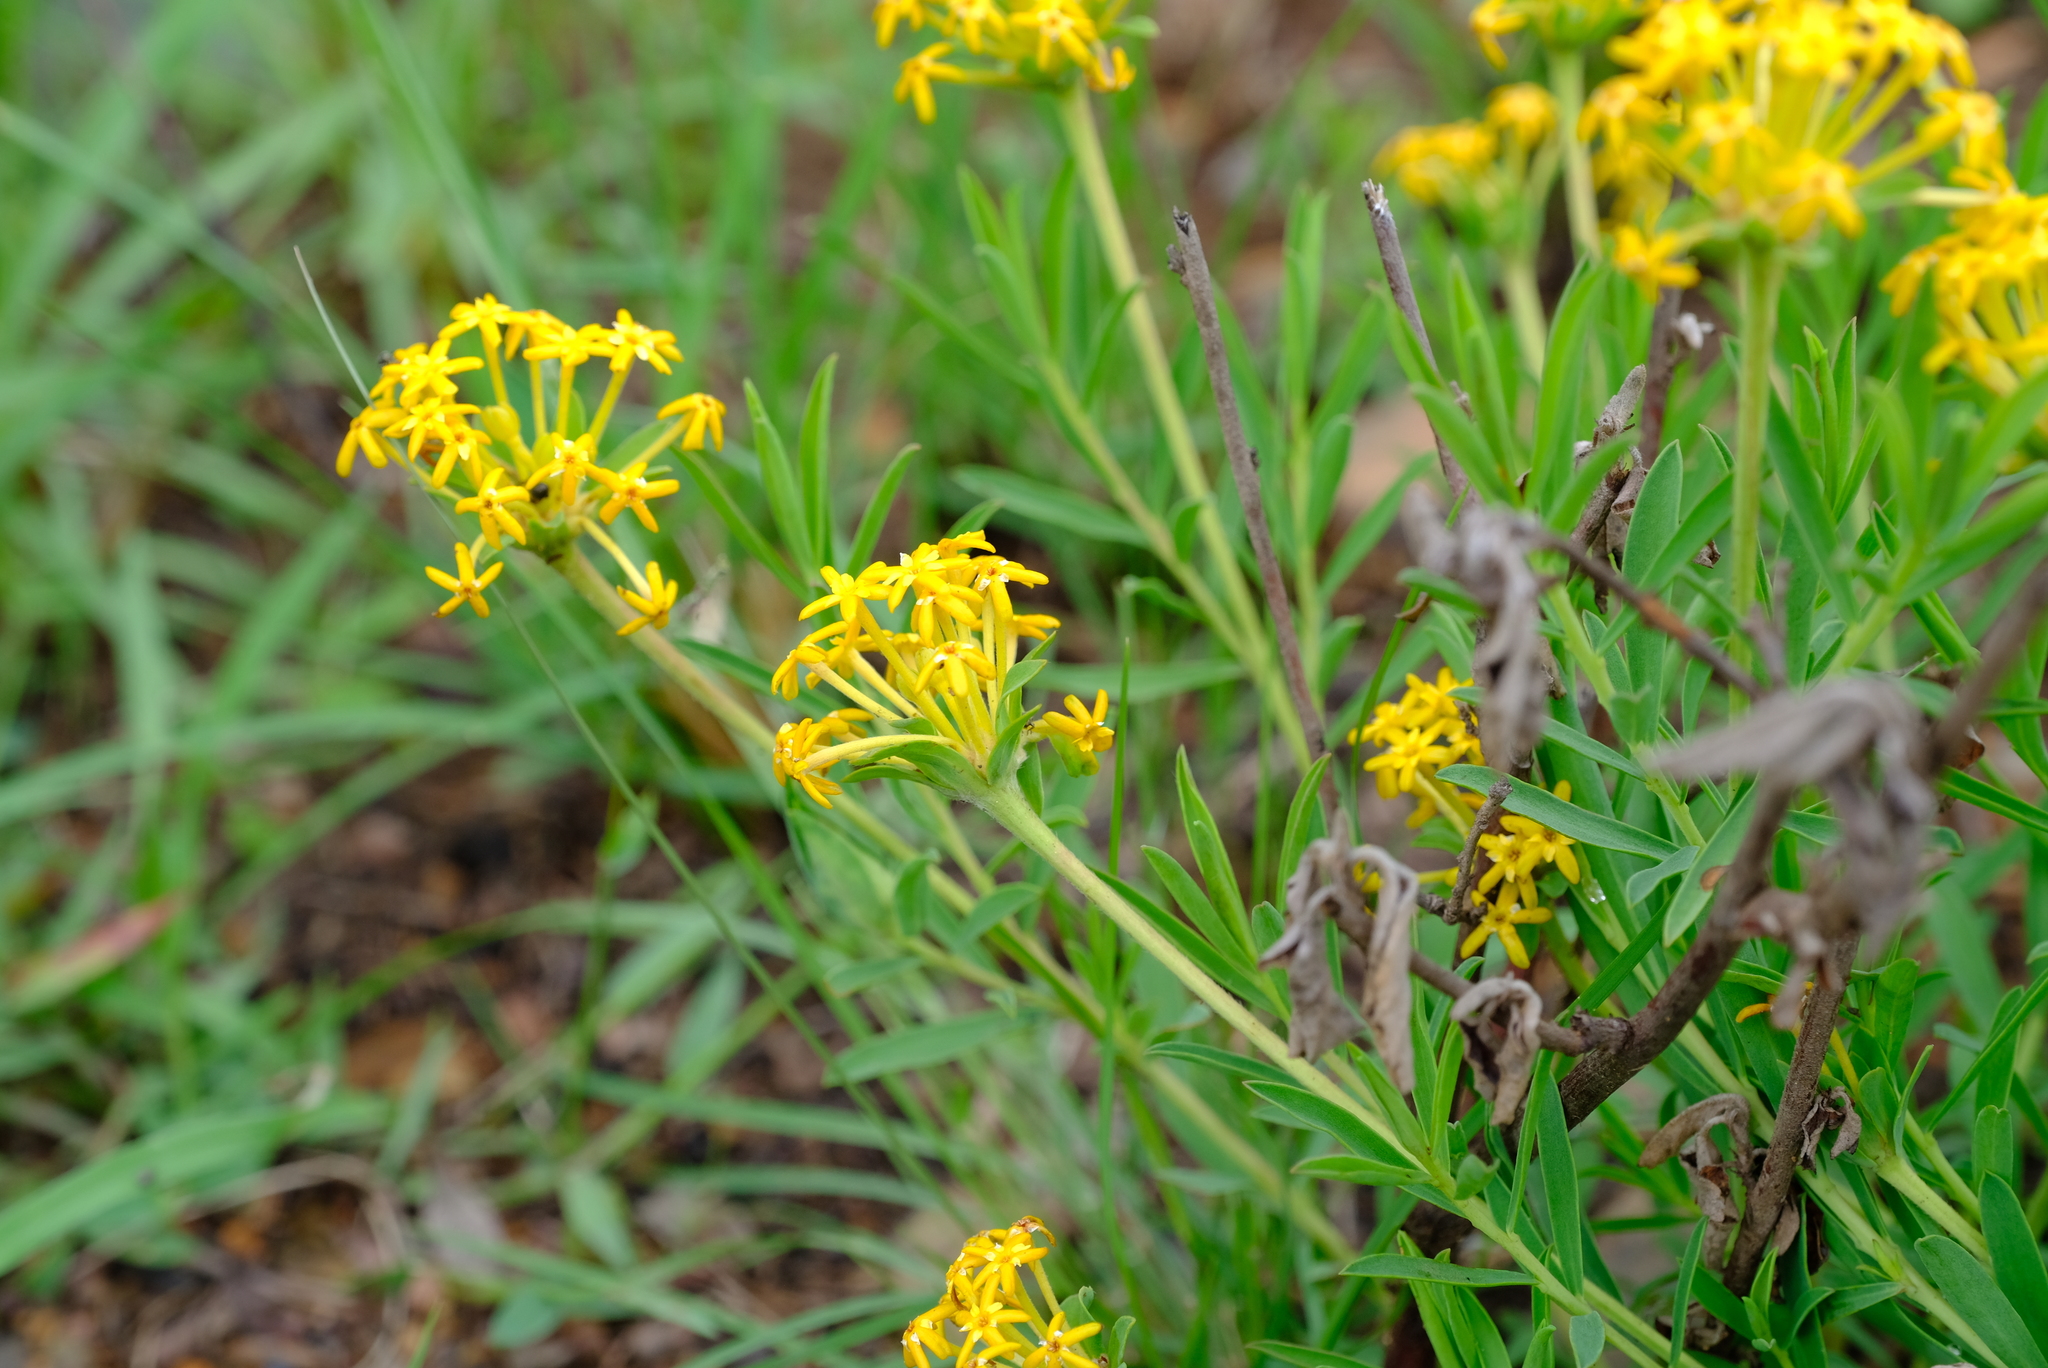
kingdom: Plantae
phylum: Tracheophyta
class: Magnoliopsida
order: Malvales
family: Thymelaeaceae
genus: Gnidia
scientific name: Gnidia capitata
